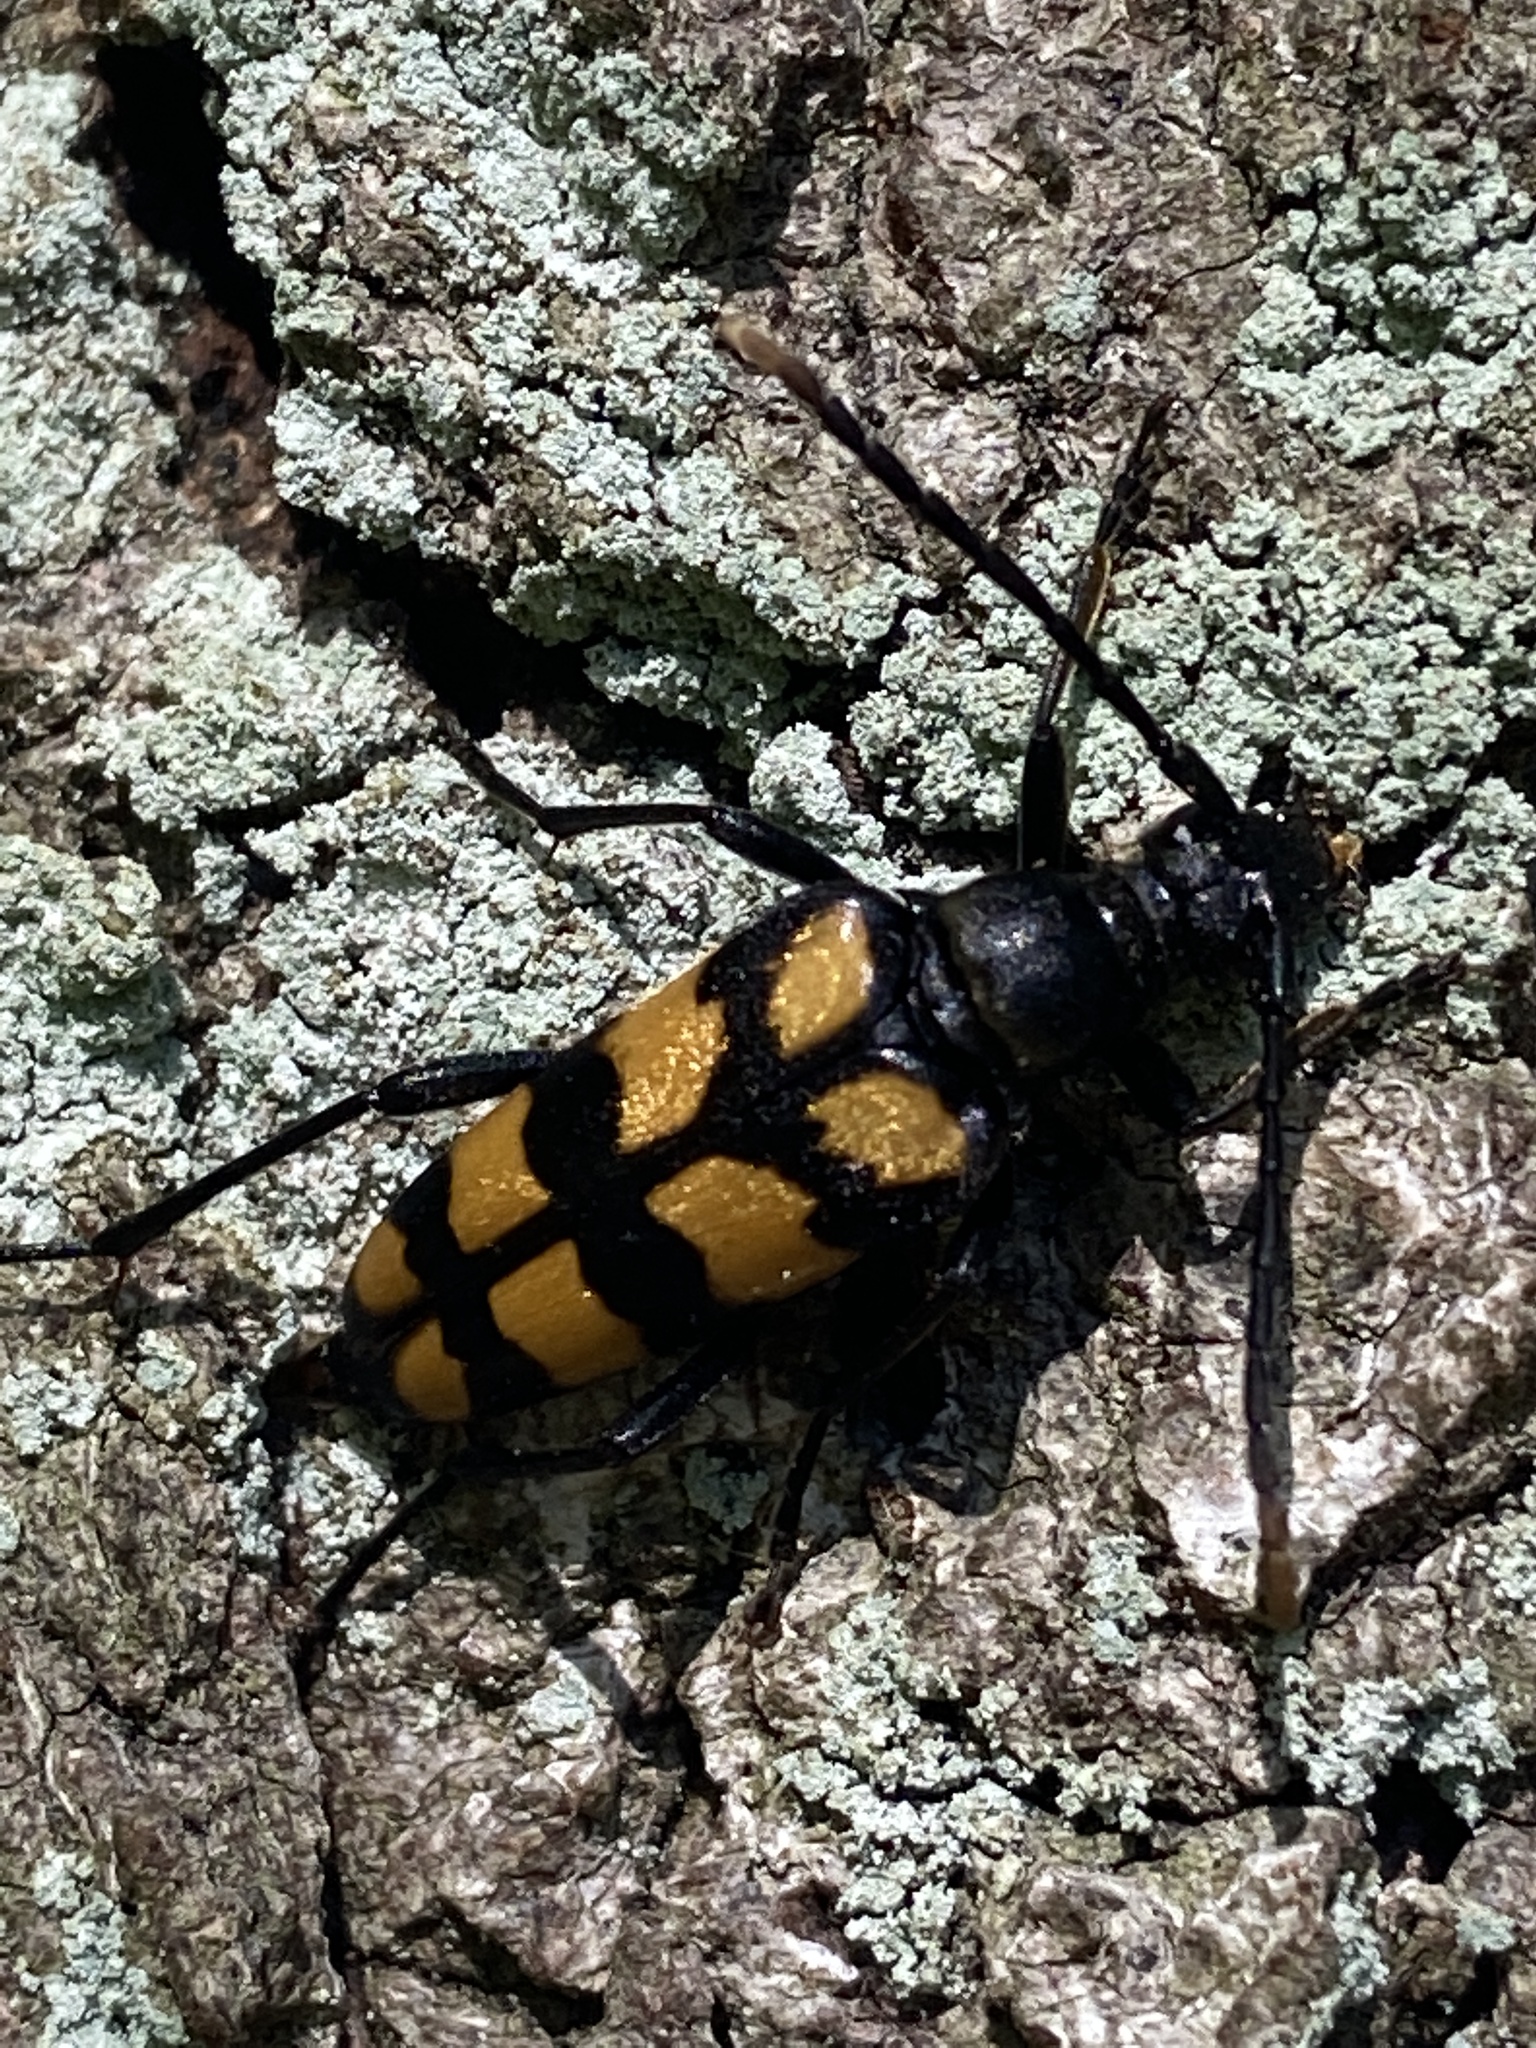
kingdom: Animalia
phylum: Arthropoda
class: Insecta
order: Coleoptera
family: Cerambycidae
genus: Leptura
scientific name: Leptura quadrifasciata
